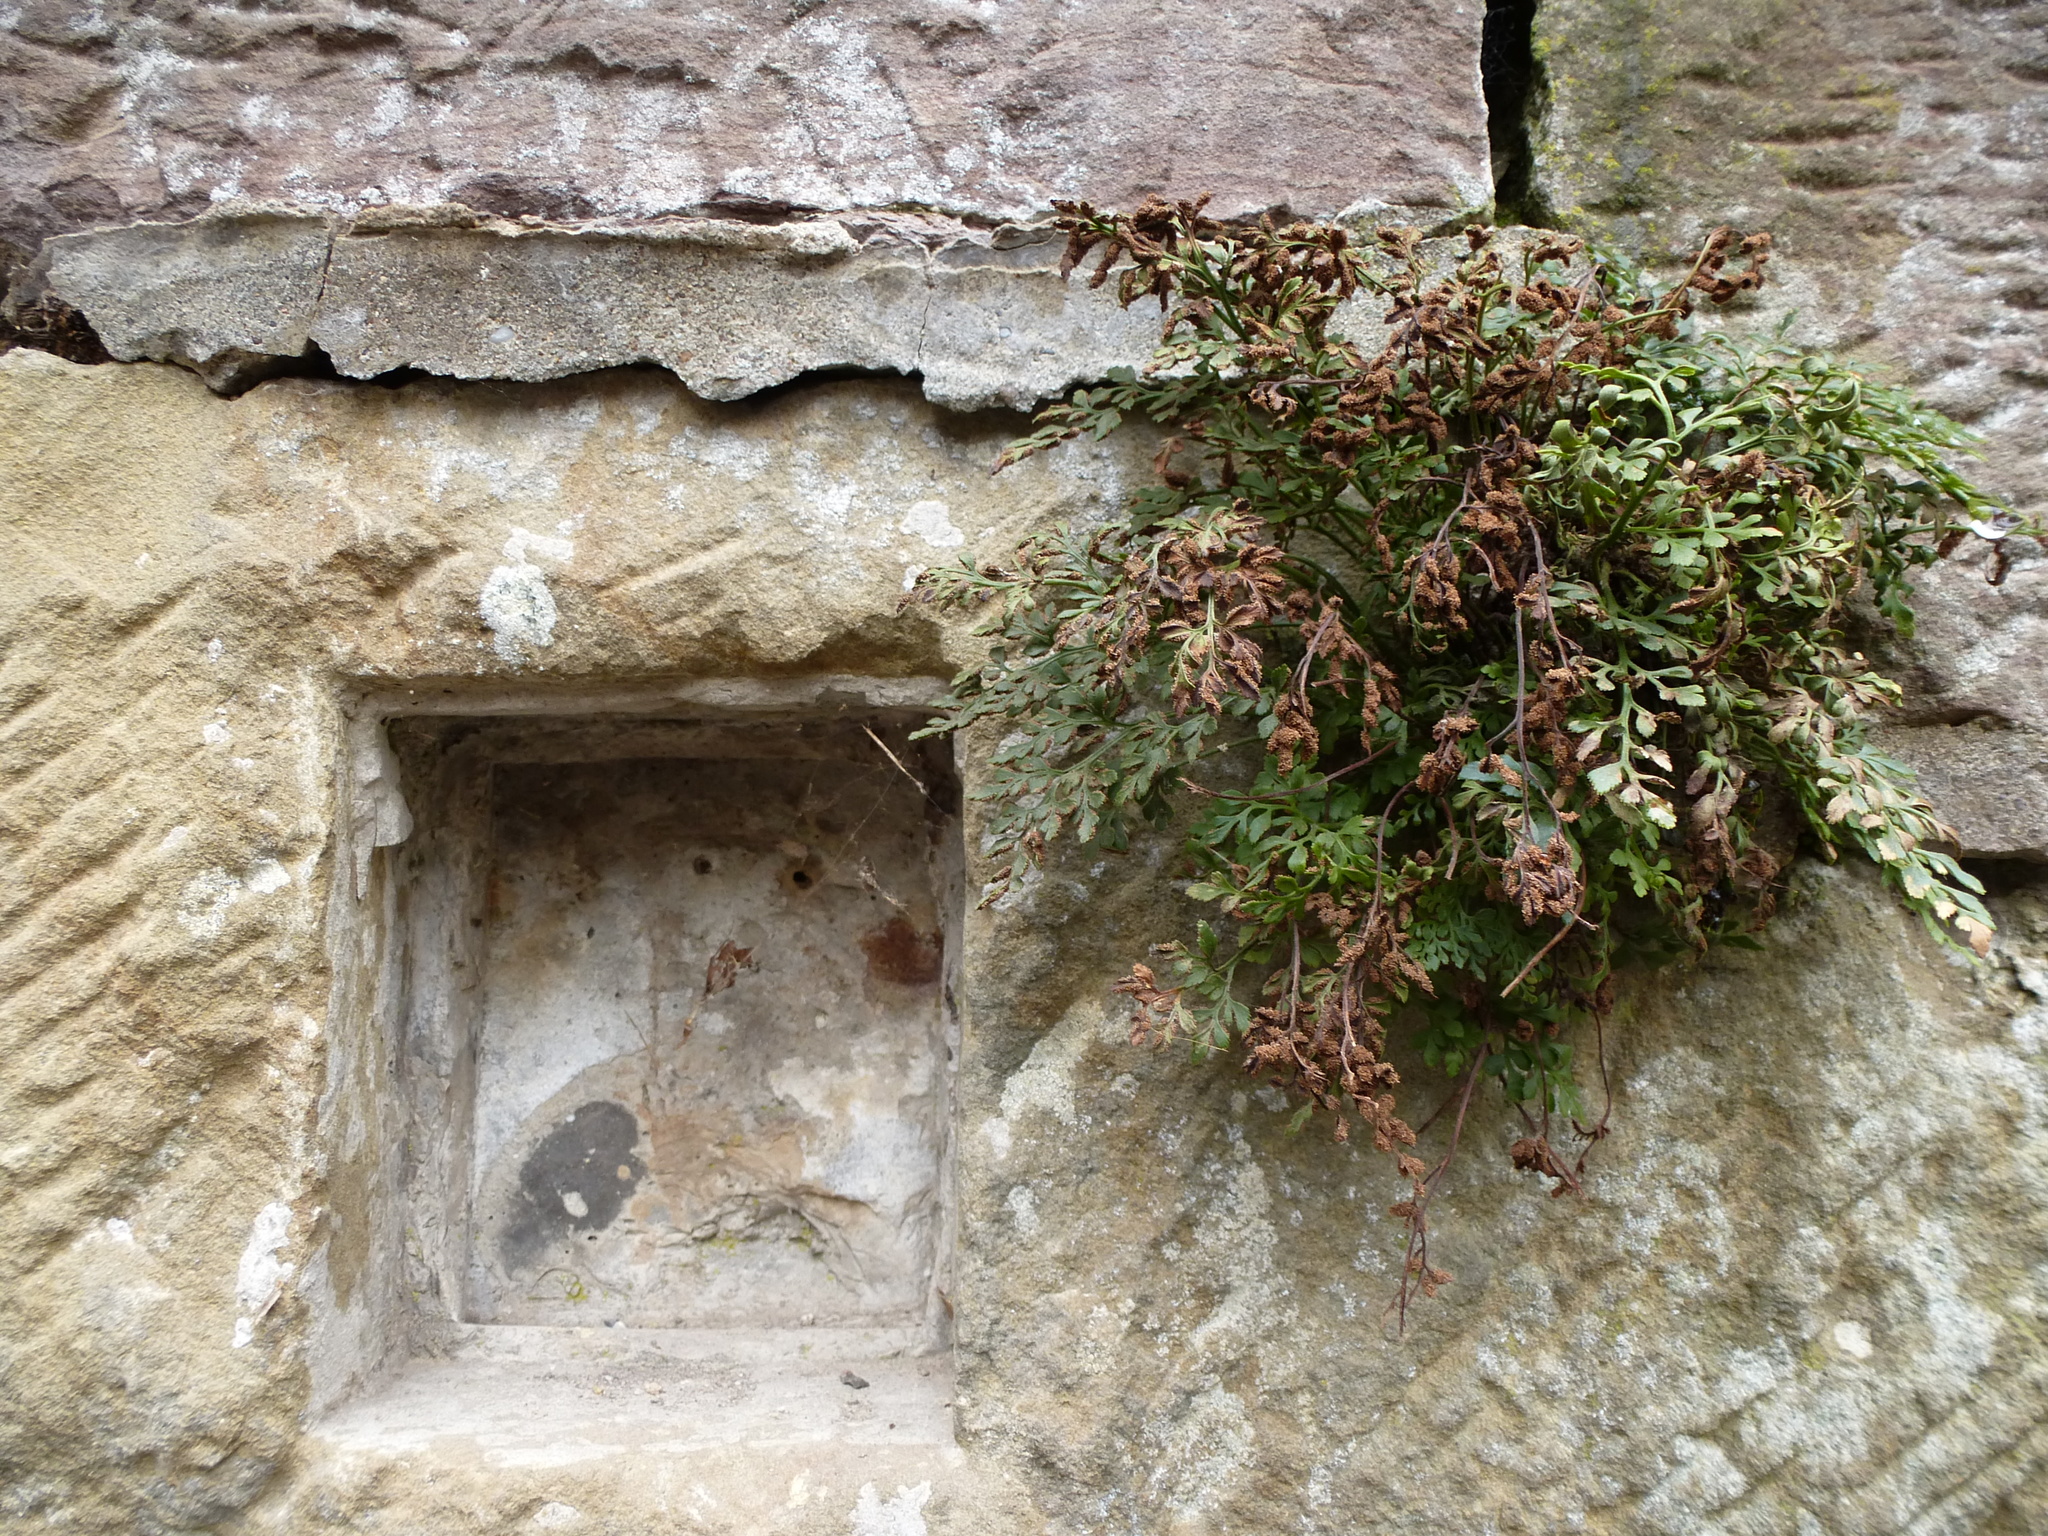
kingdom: Plantae
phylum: Tracheophyta
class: Polypodiopsida
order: Polypodiales
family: Aspleniaceae
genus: Asplenium
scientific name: Asplenium ruta-muraria
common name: Wall-rue
